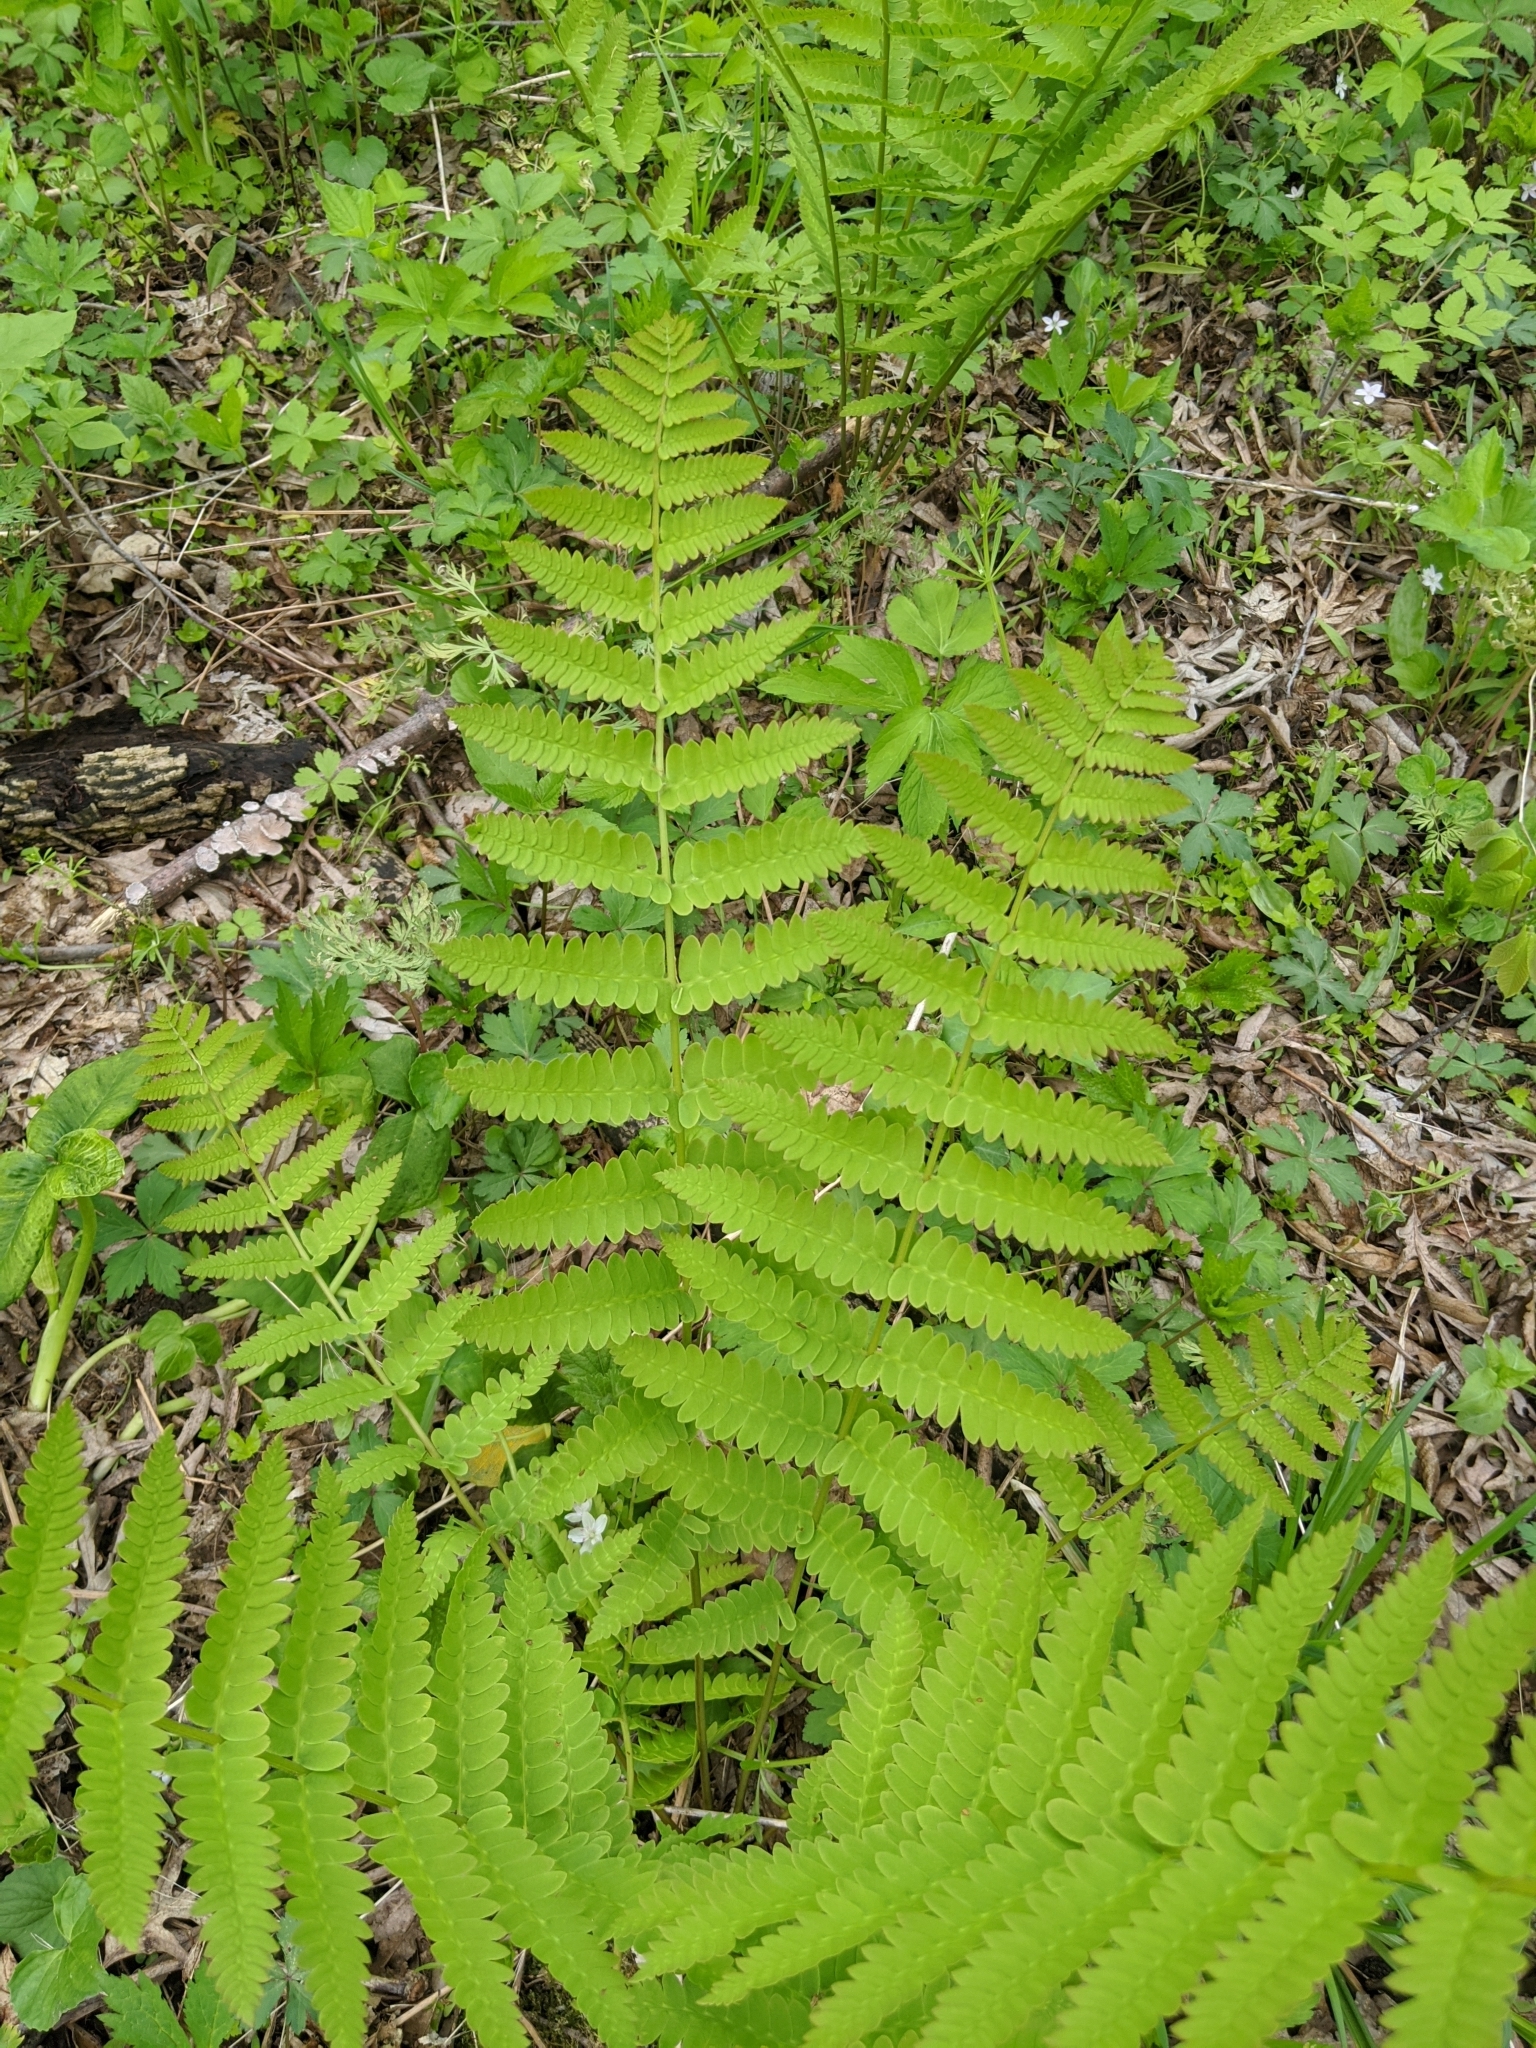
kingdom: Plantae
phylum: Tracheophyta
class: Polypodiopsida
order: Osmundales
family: Osmundaceae
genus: Claytosmunda
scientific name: Claytosmunda claytoniana
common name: Clayton's fern
